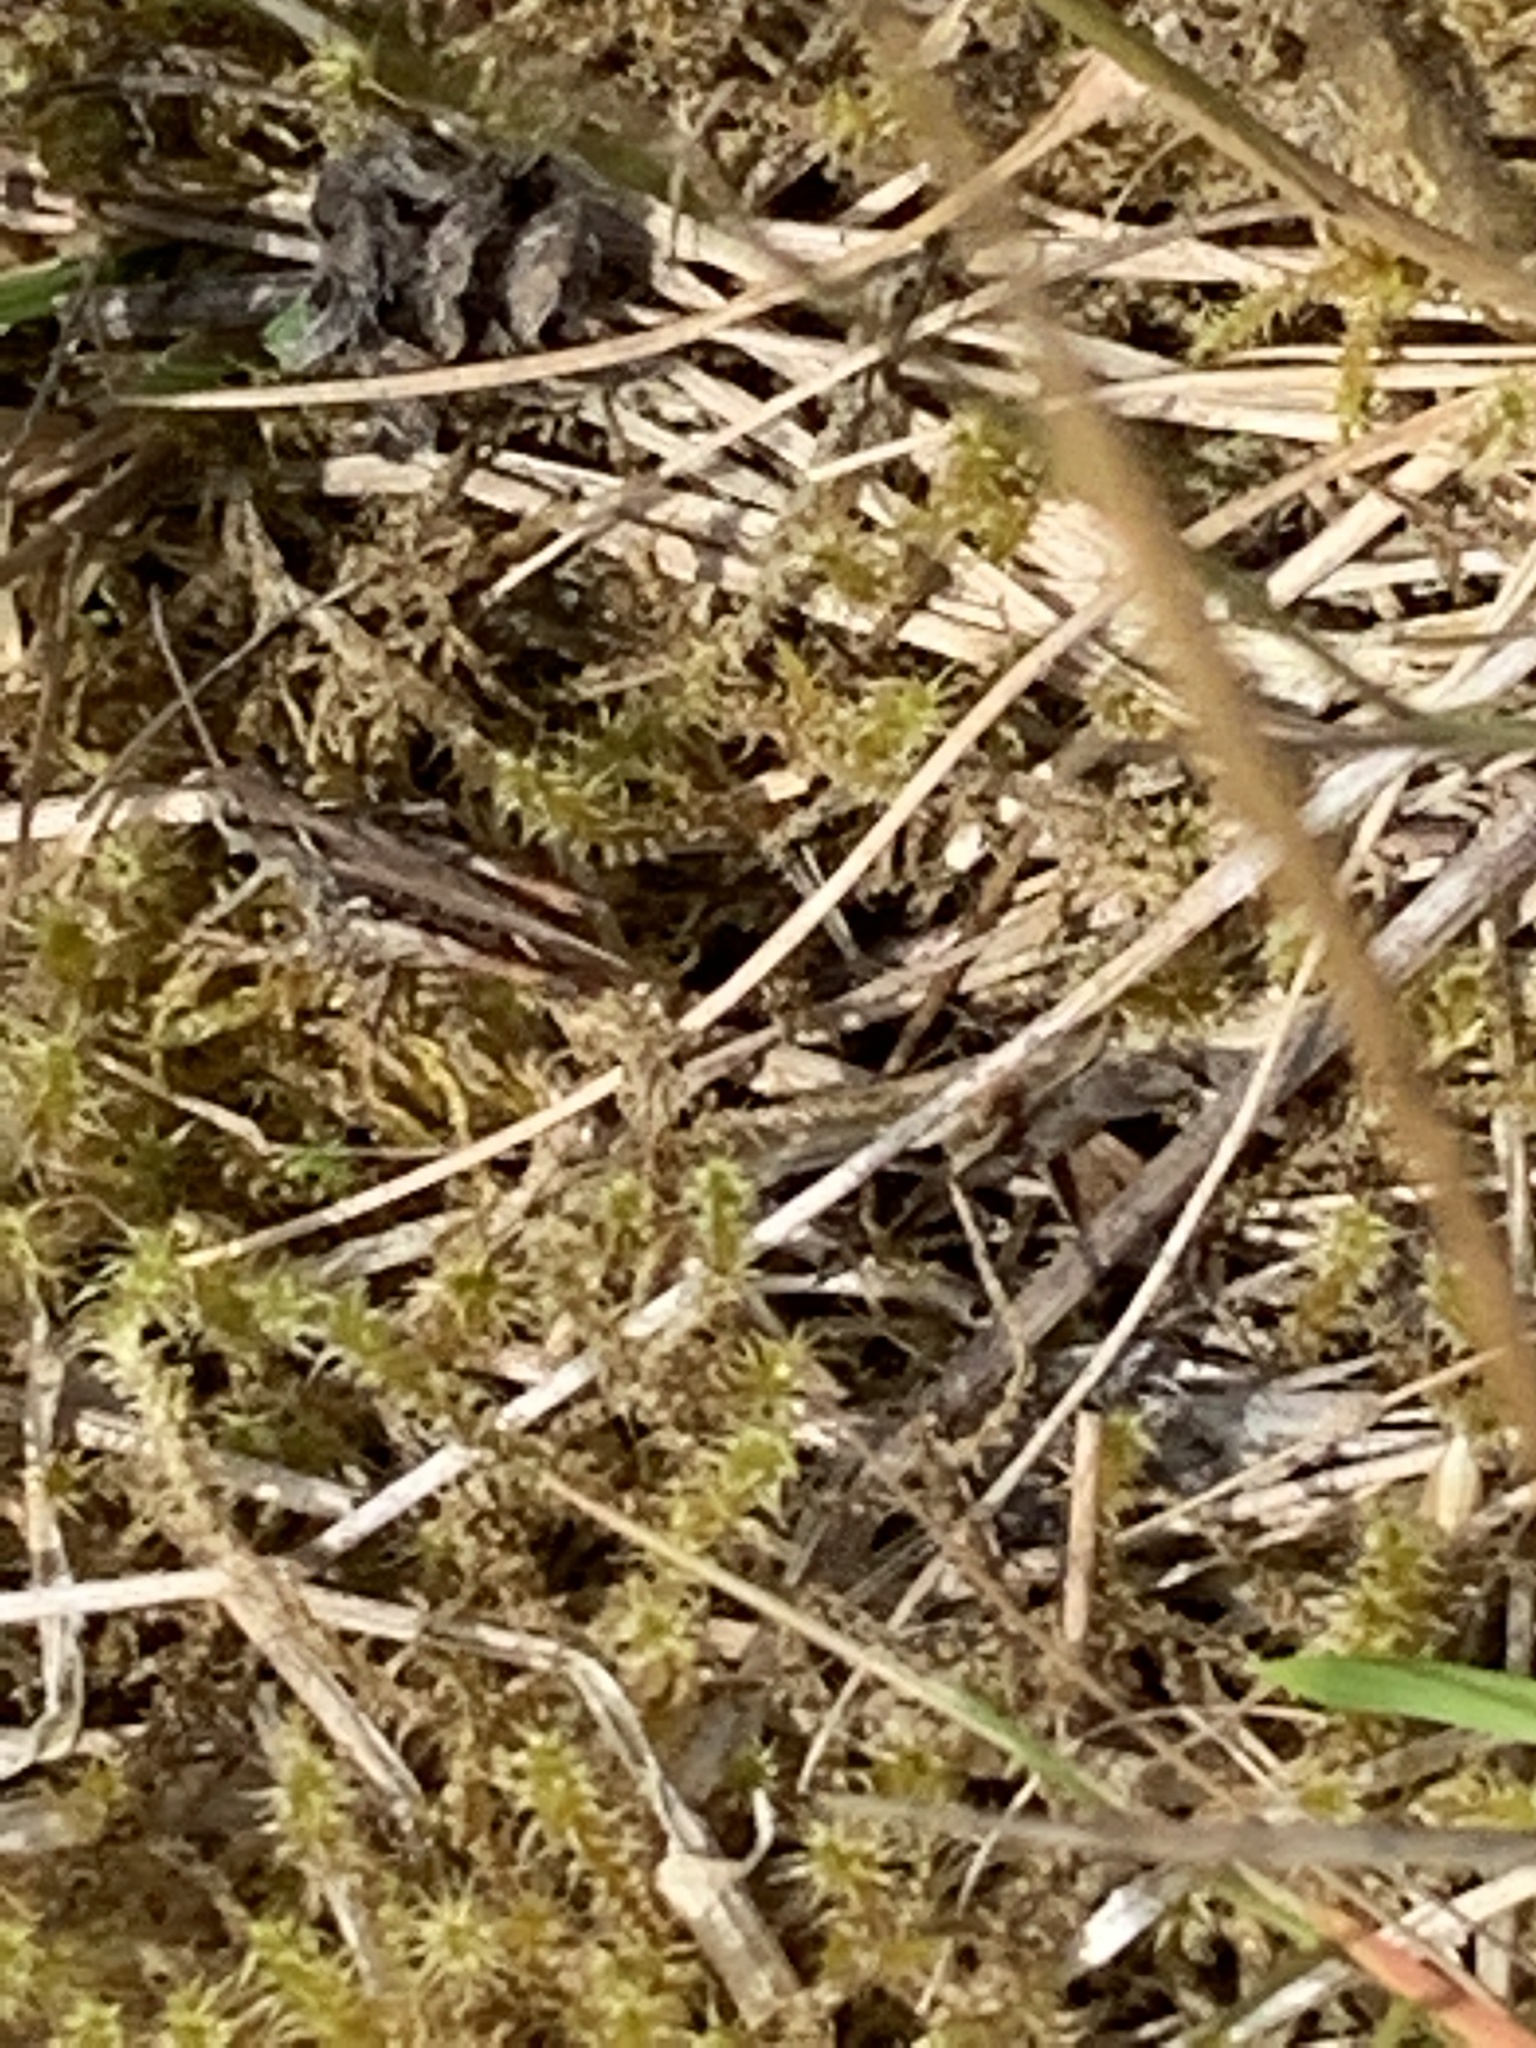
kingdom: Animalia
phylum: Arthropoda
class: Insecta
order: Orthoptera
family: Acrididae
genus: Chorthippus
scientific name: Chorthippus brunneus
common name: Field grasshopper
